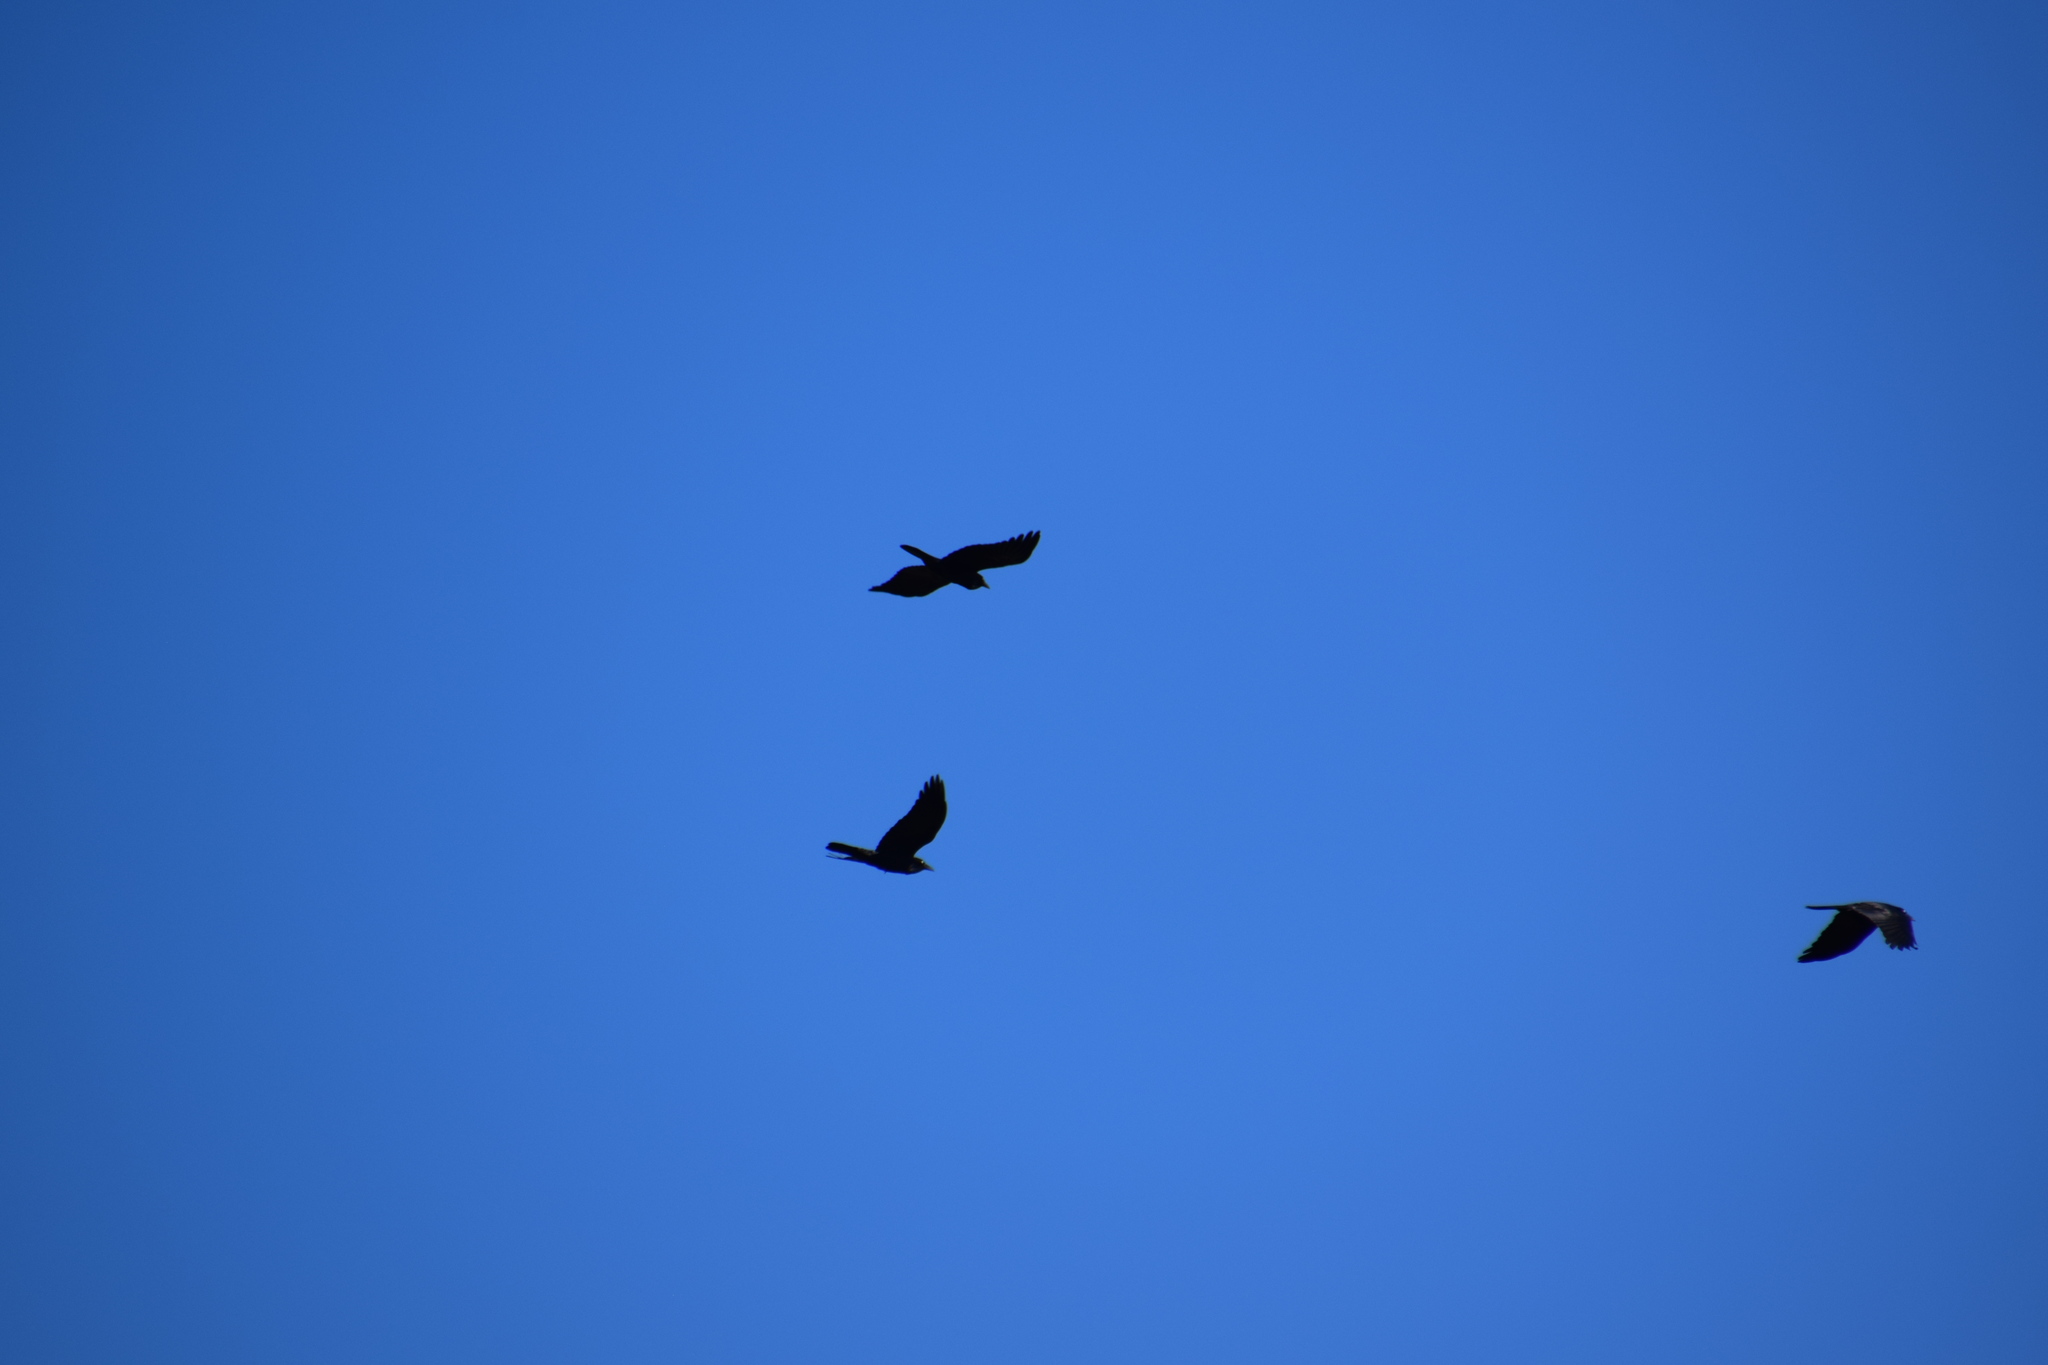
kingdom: Animalia
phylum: Chordata
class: Aves
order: Passeriformes
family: Corvidae
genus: Corvus
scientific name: Corvus coronoides
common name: Australian raven
